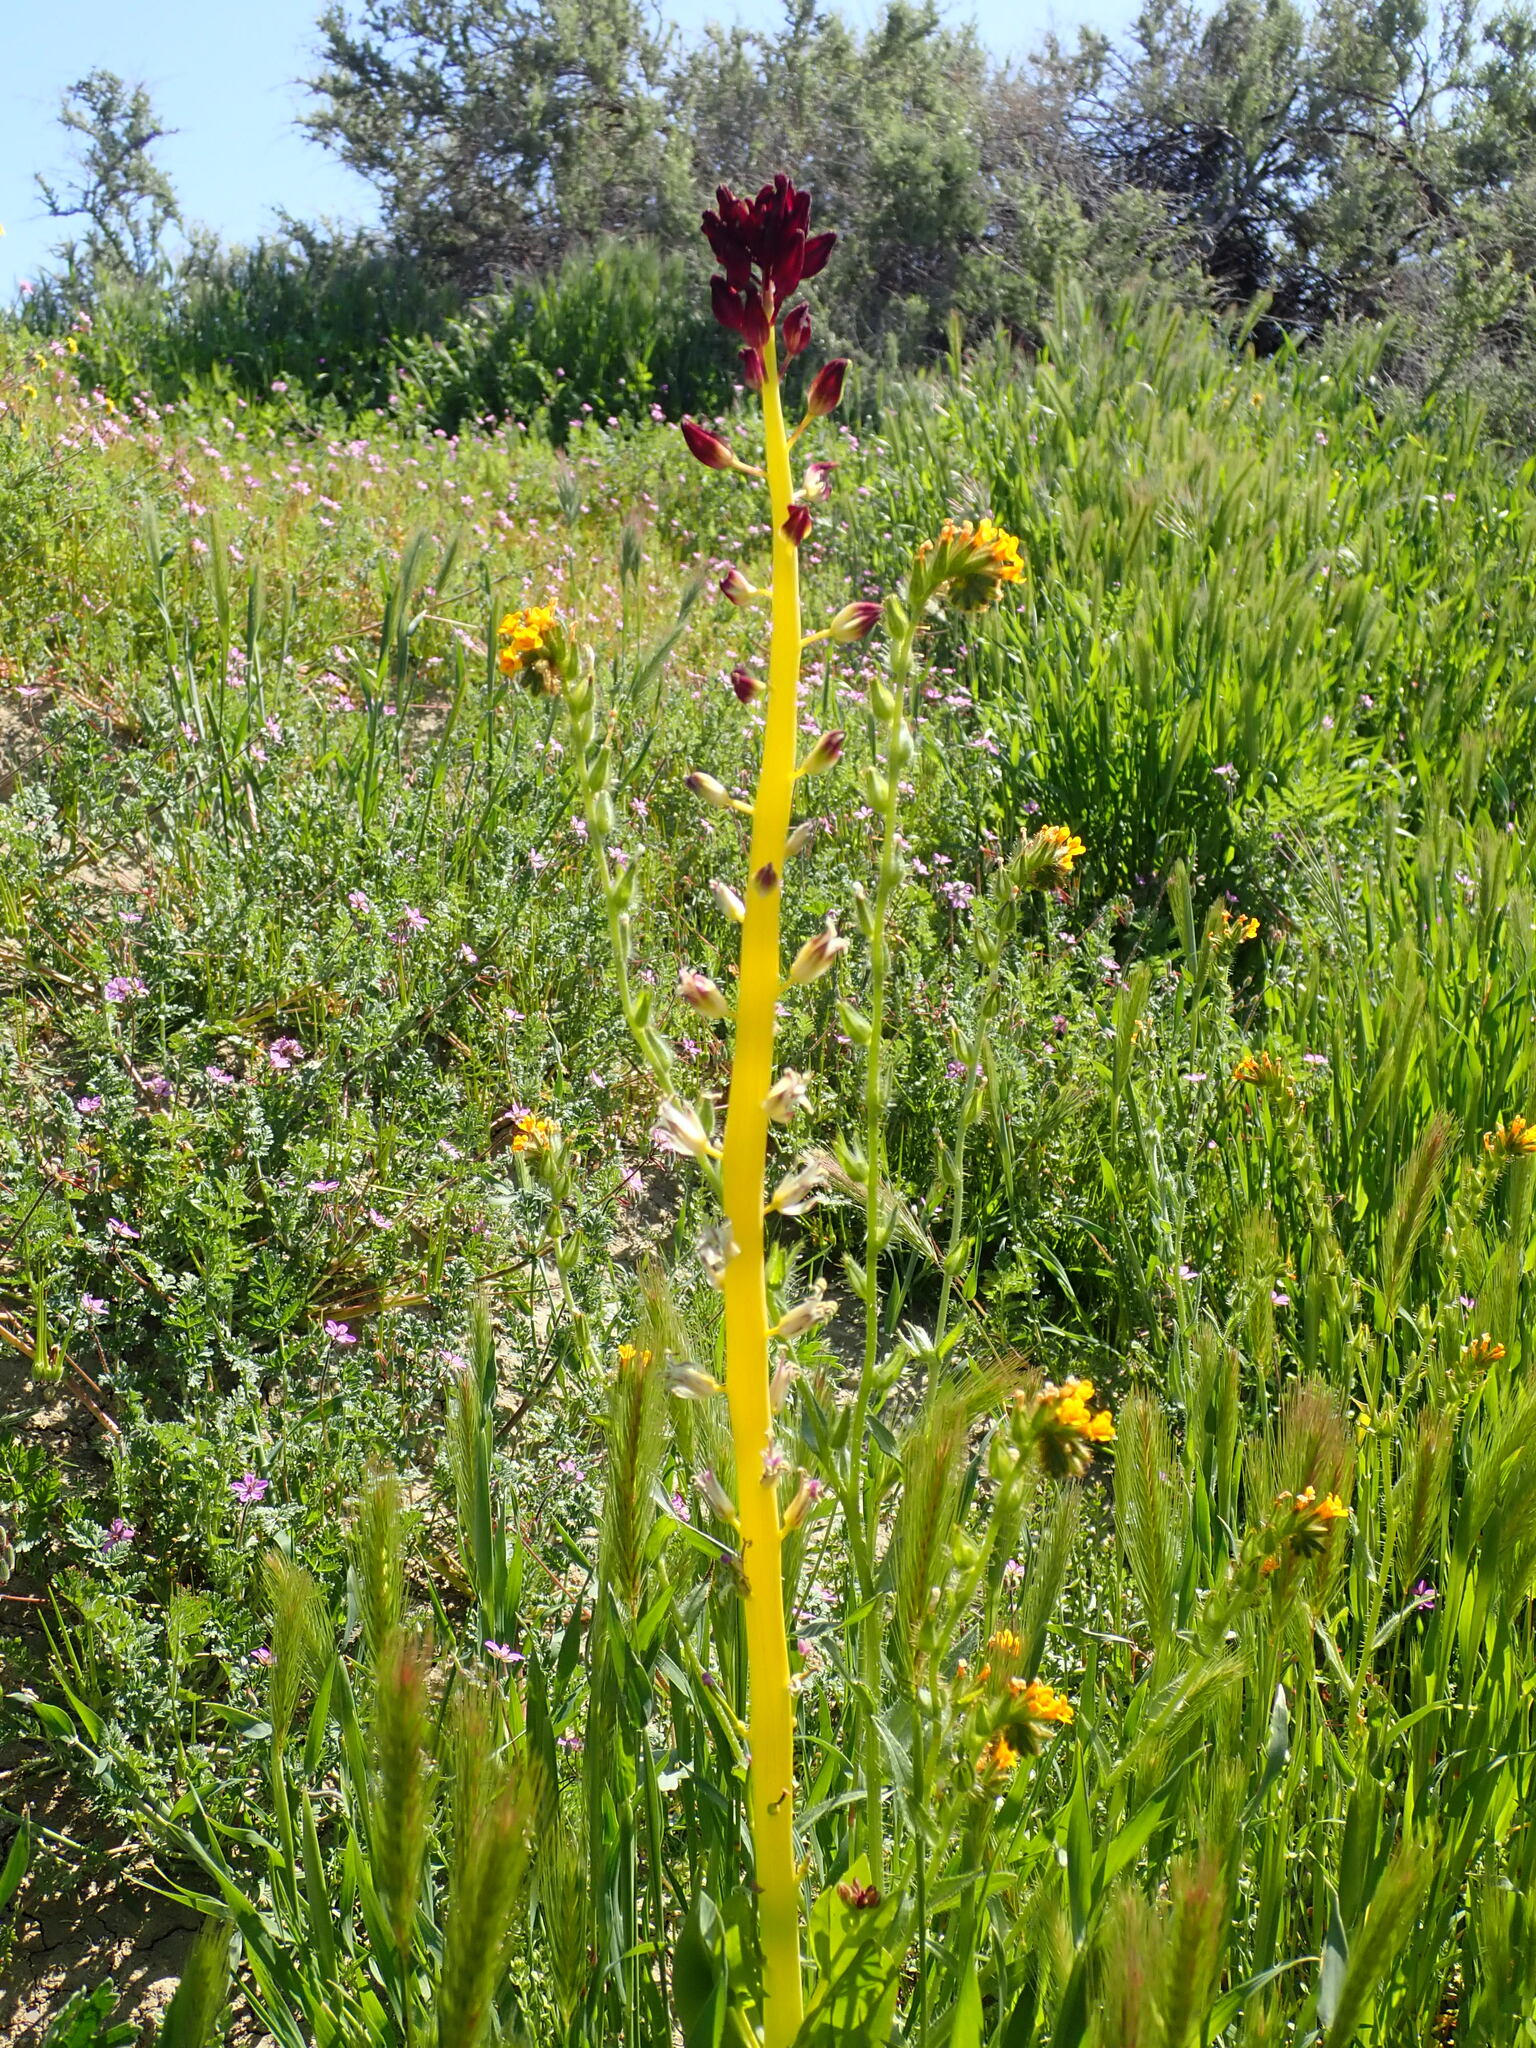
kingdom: Plantae
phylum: Tracheophyta
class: Magnoliopsida
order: Brassicales
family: Brassicaceae
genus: Streptanthus
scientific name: Streptanthus inflatus
